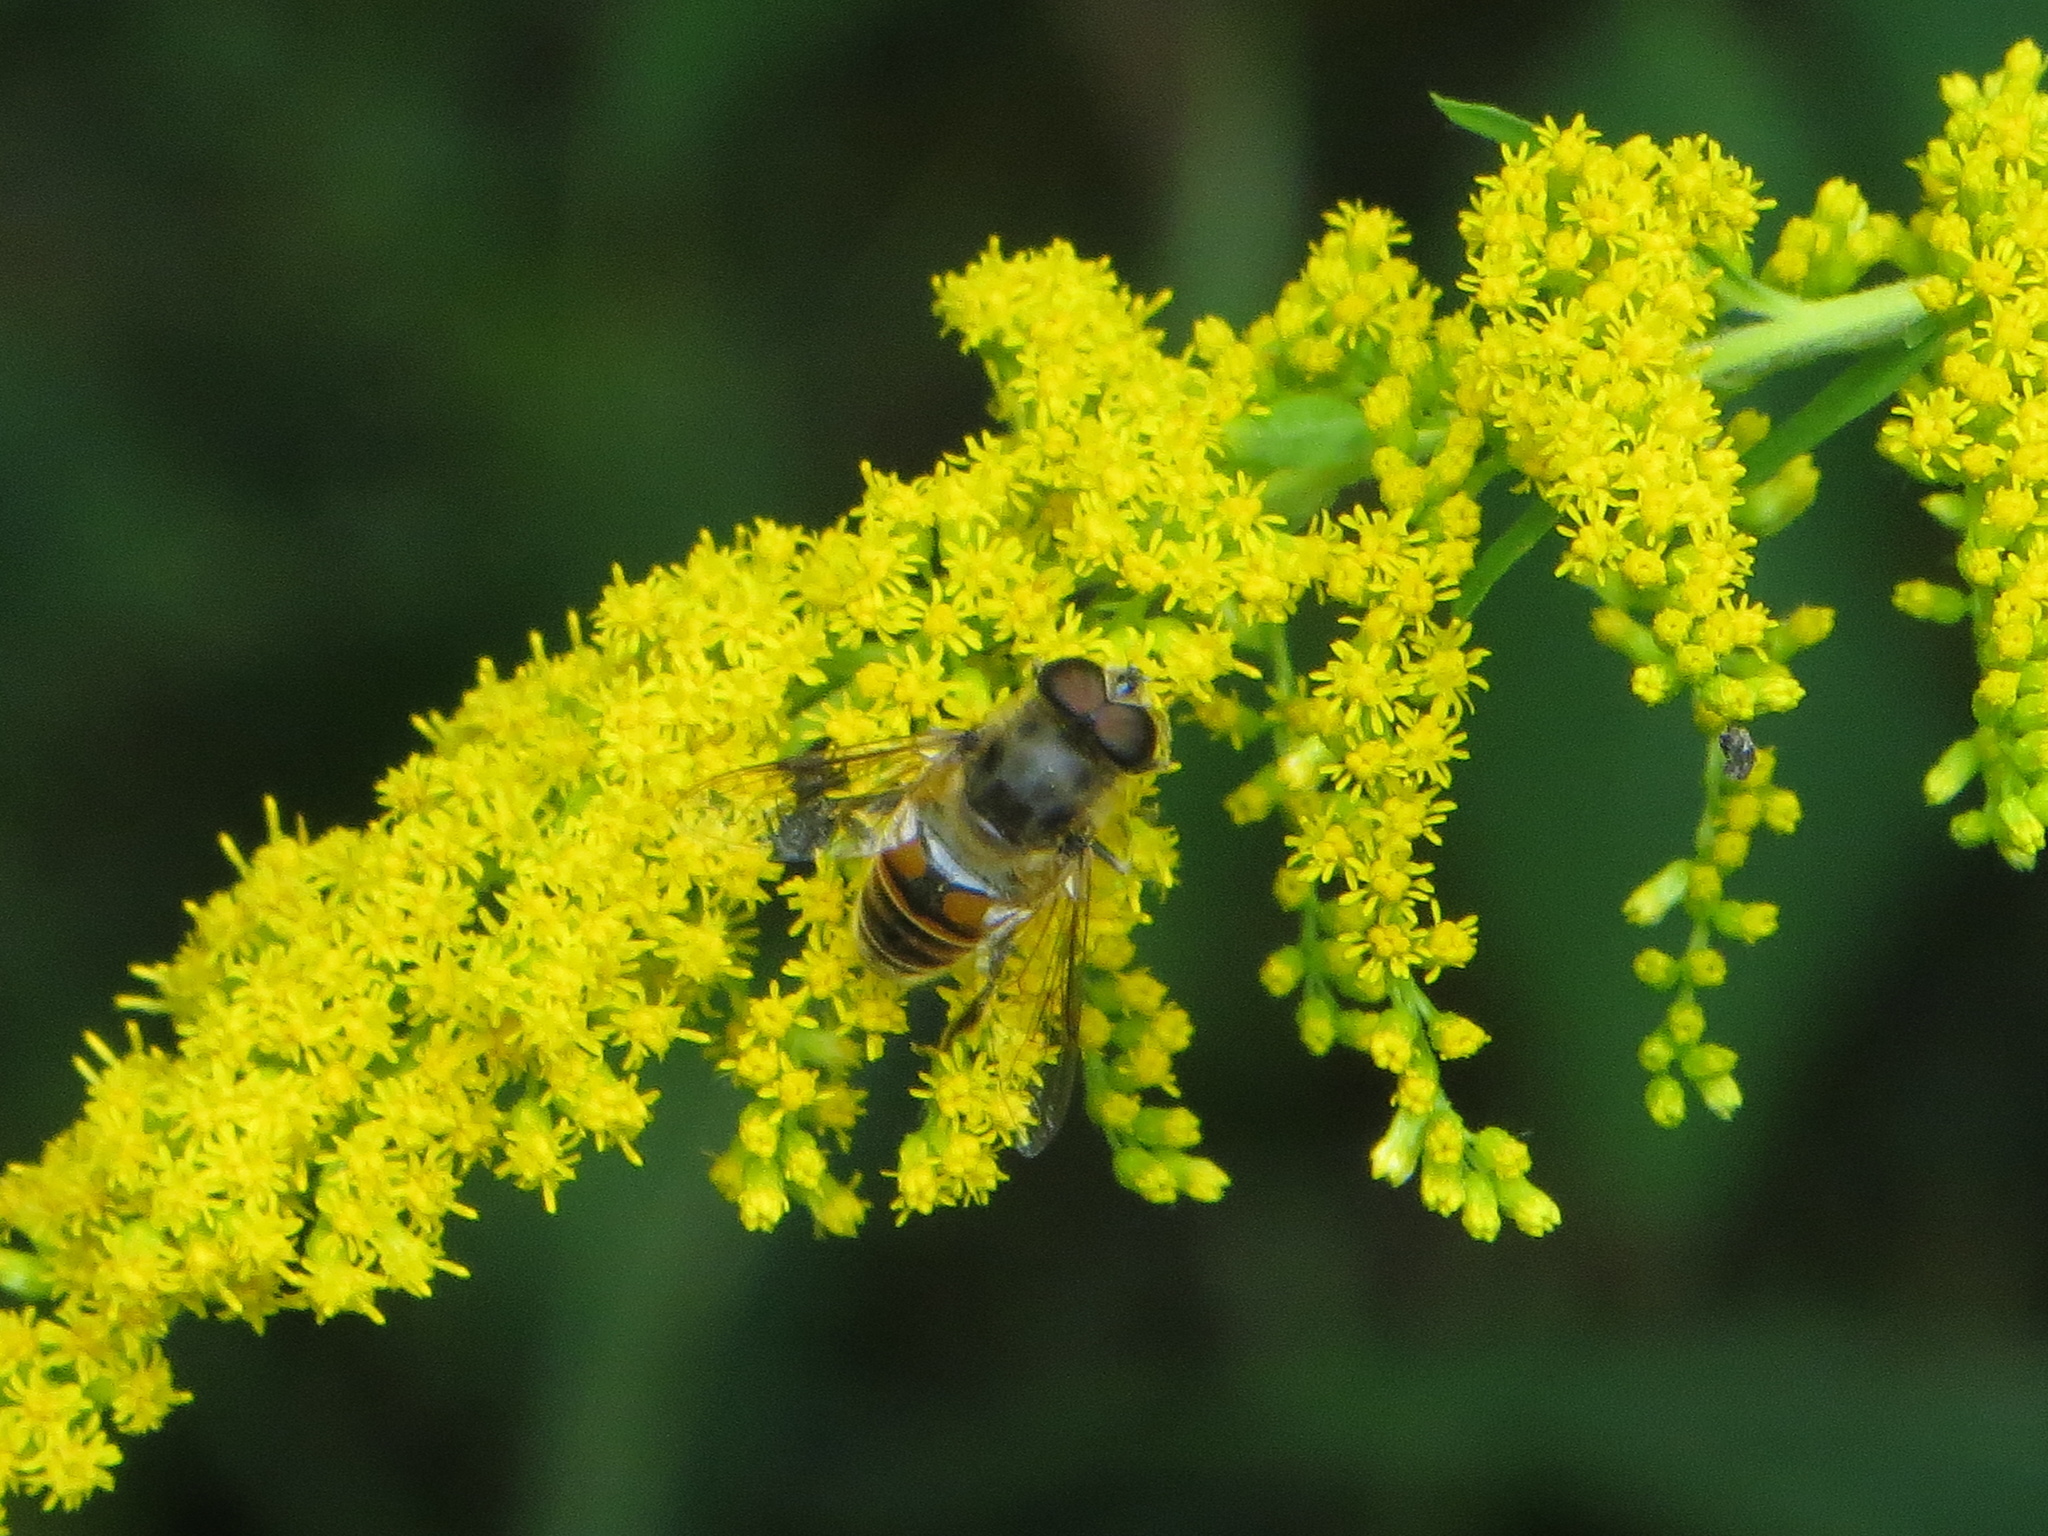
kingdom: Animalia
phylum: Arthropoda
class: Insecta
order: Diptera
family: Syrphidae
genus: Eristalis
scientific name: Eristalis tenax
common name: Drone fly
